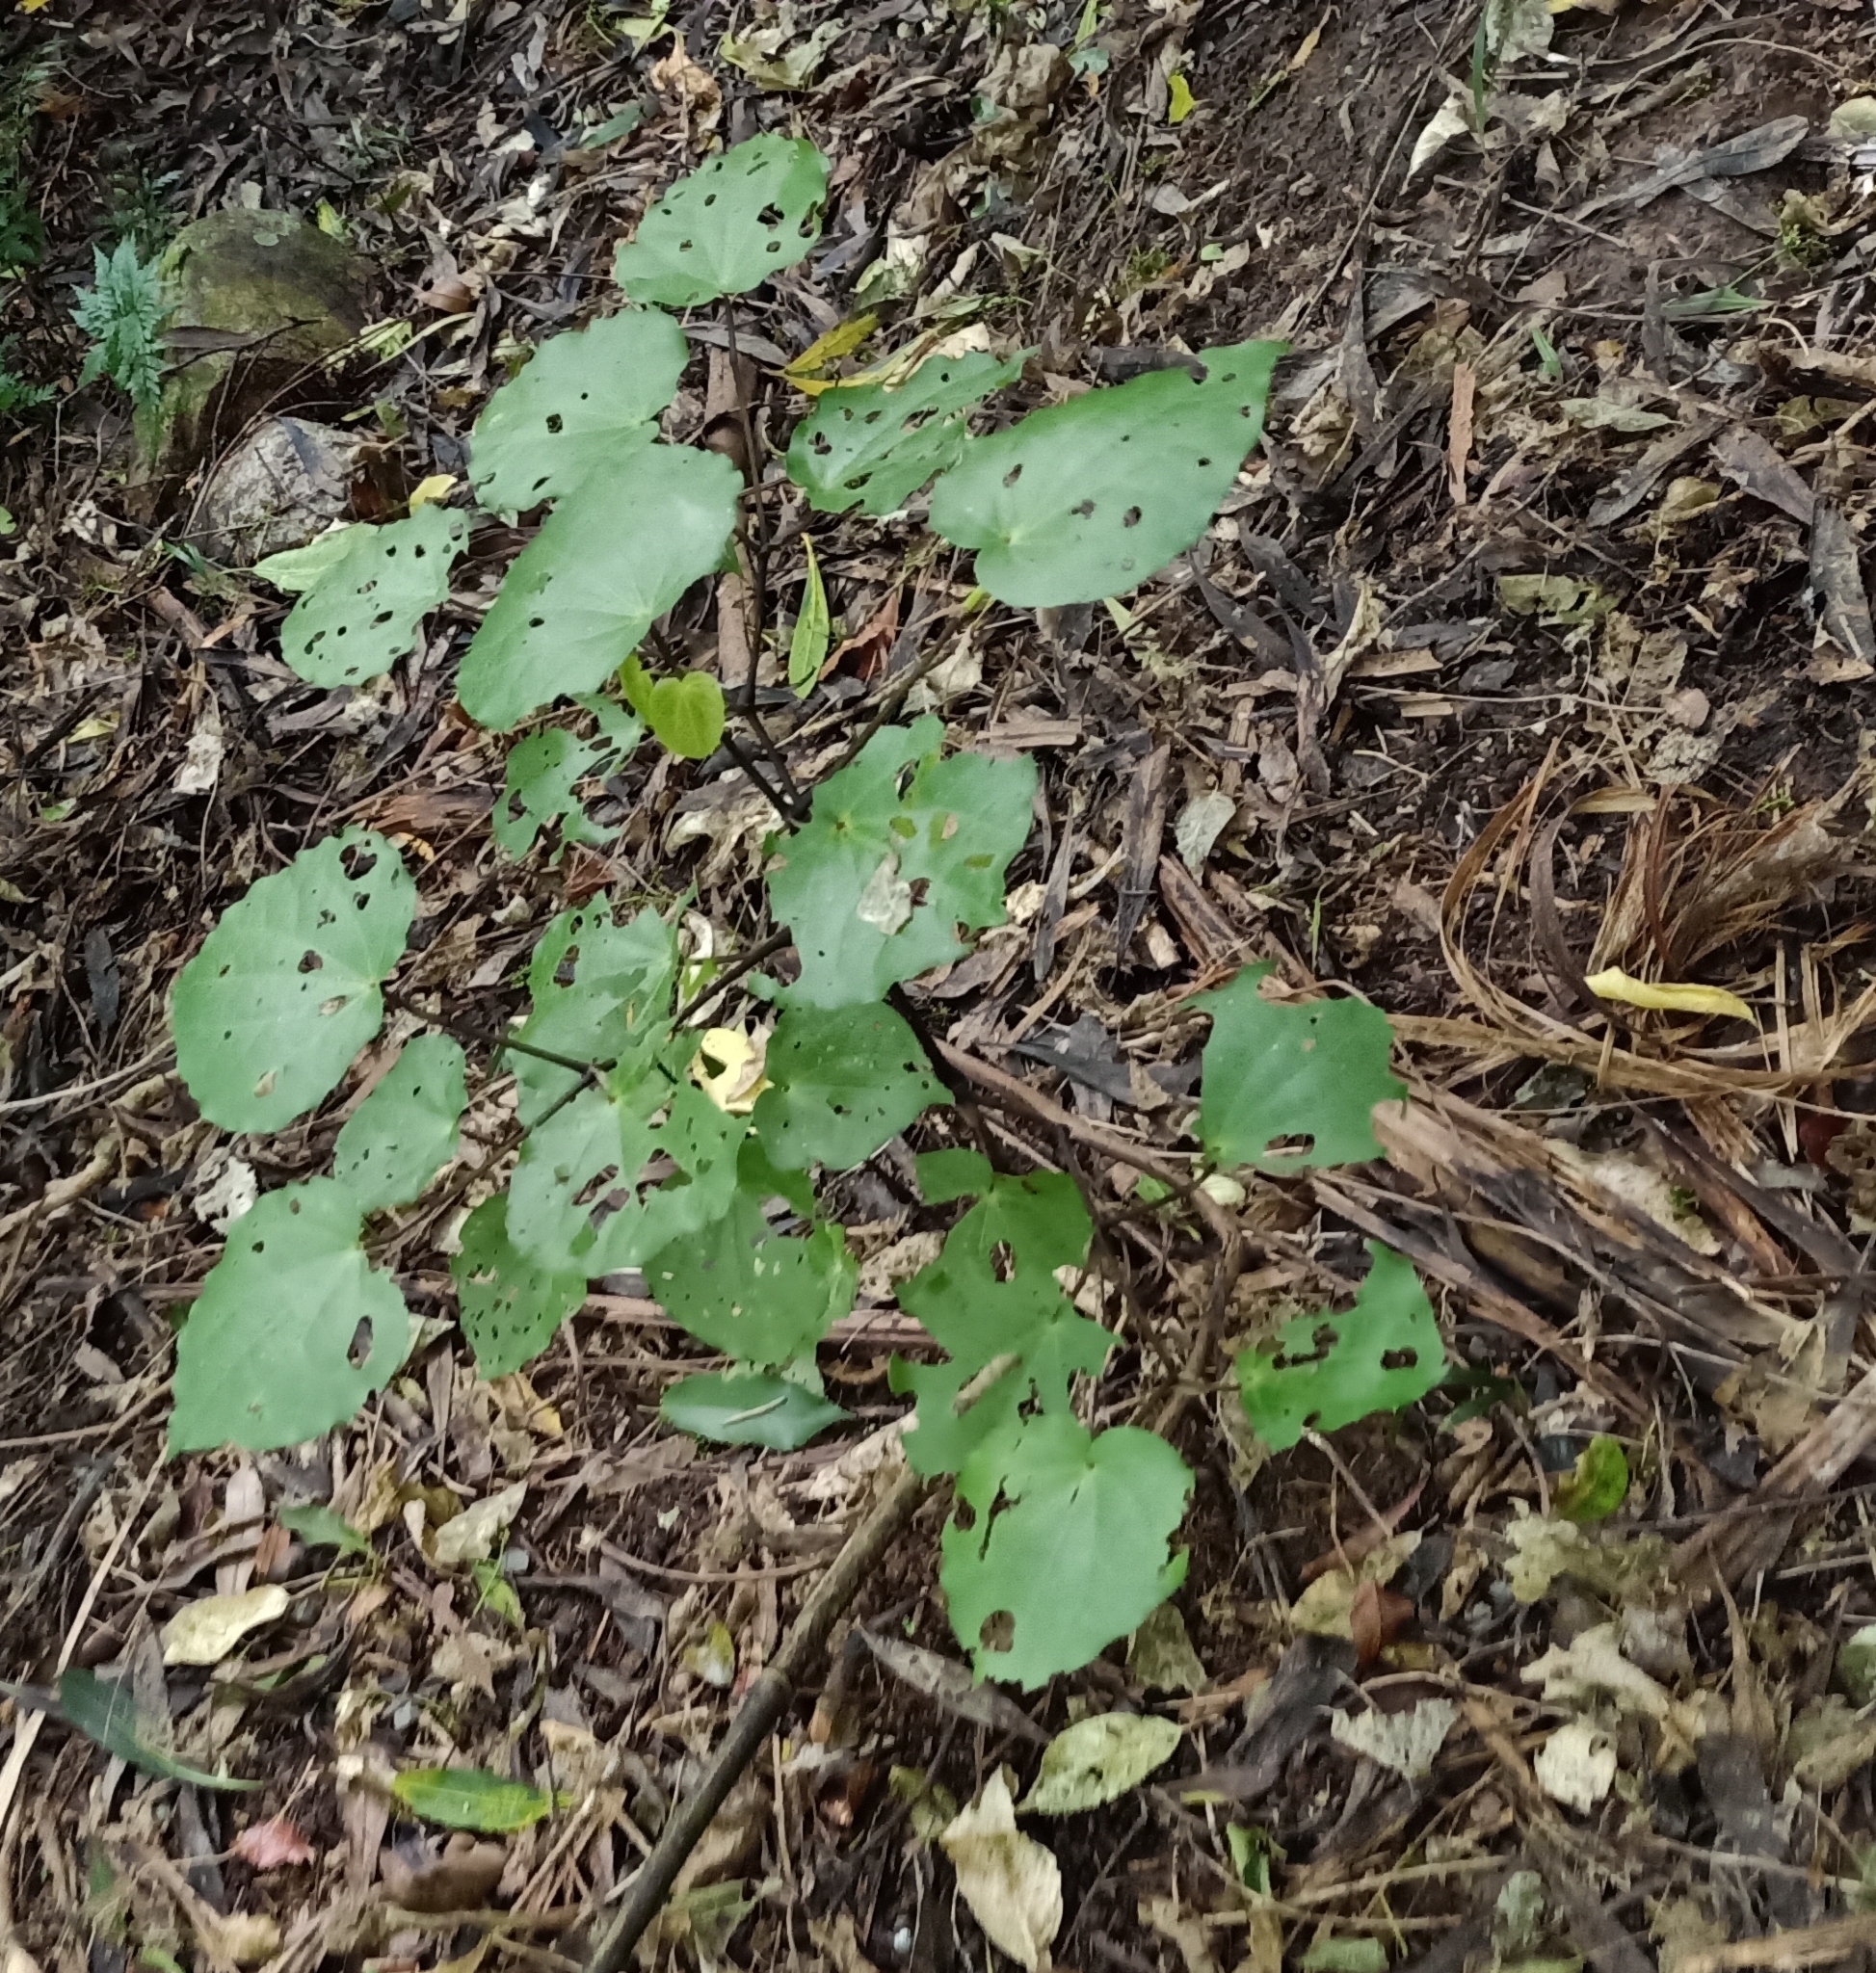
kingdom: Plantae
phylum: Tracheophyta
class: Magnoliopsida
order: Piperales
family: Piperaceae
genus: Macropiper
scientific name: Macropiper excelsum
